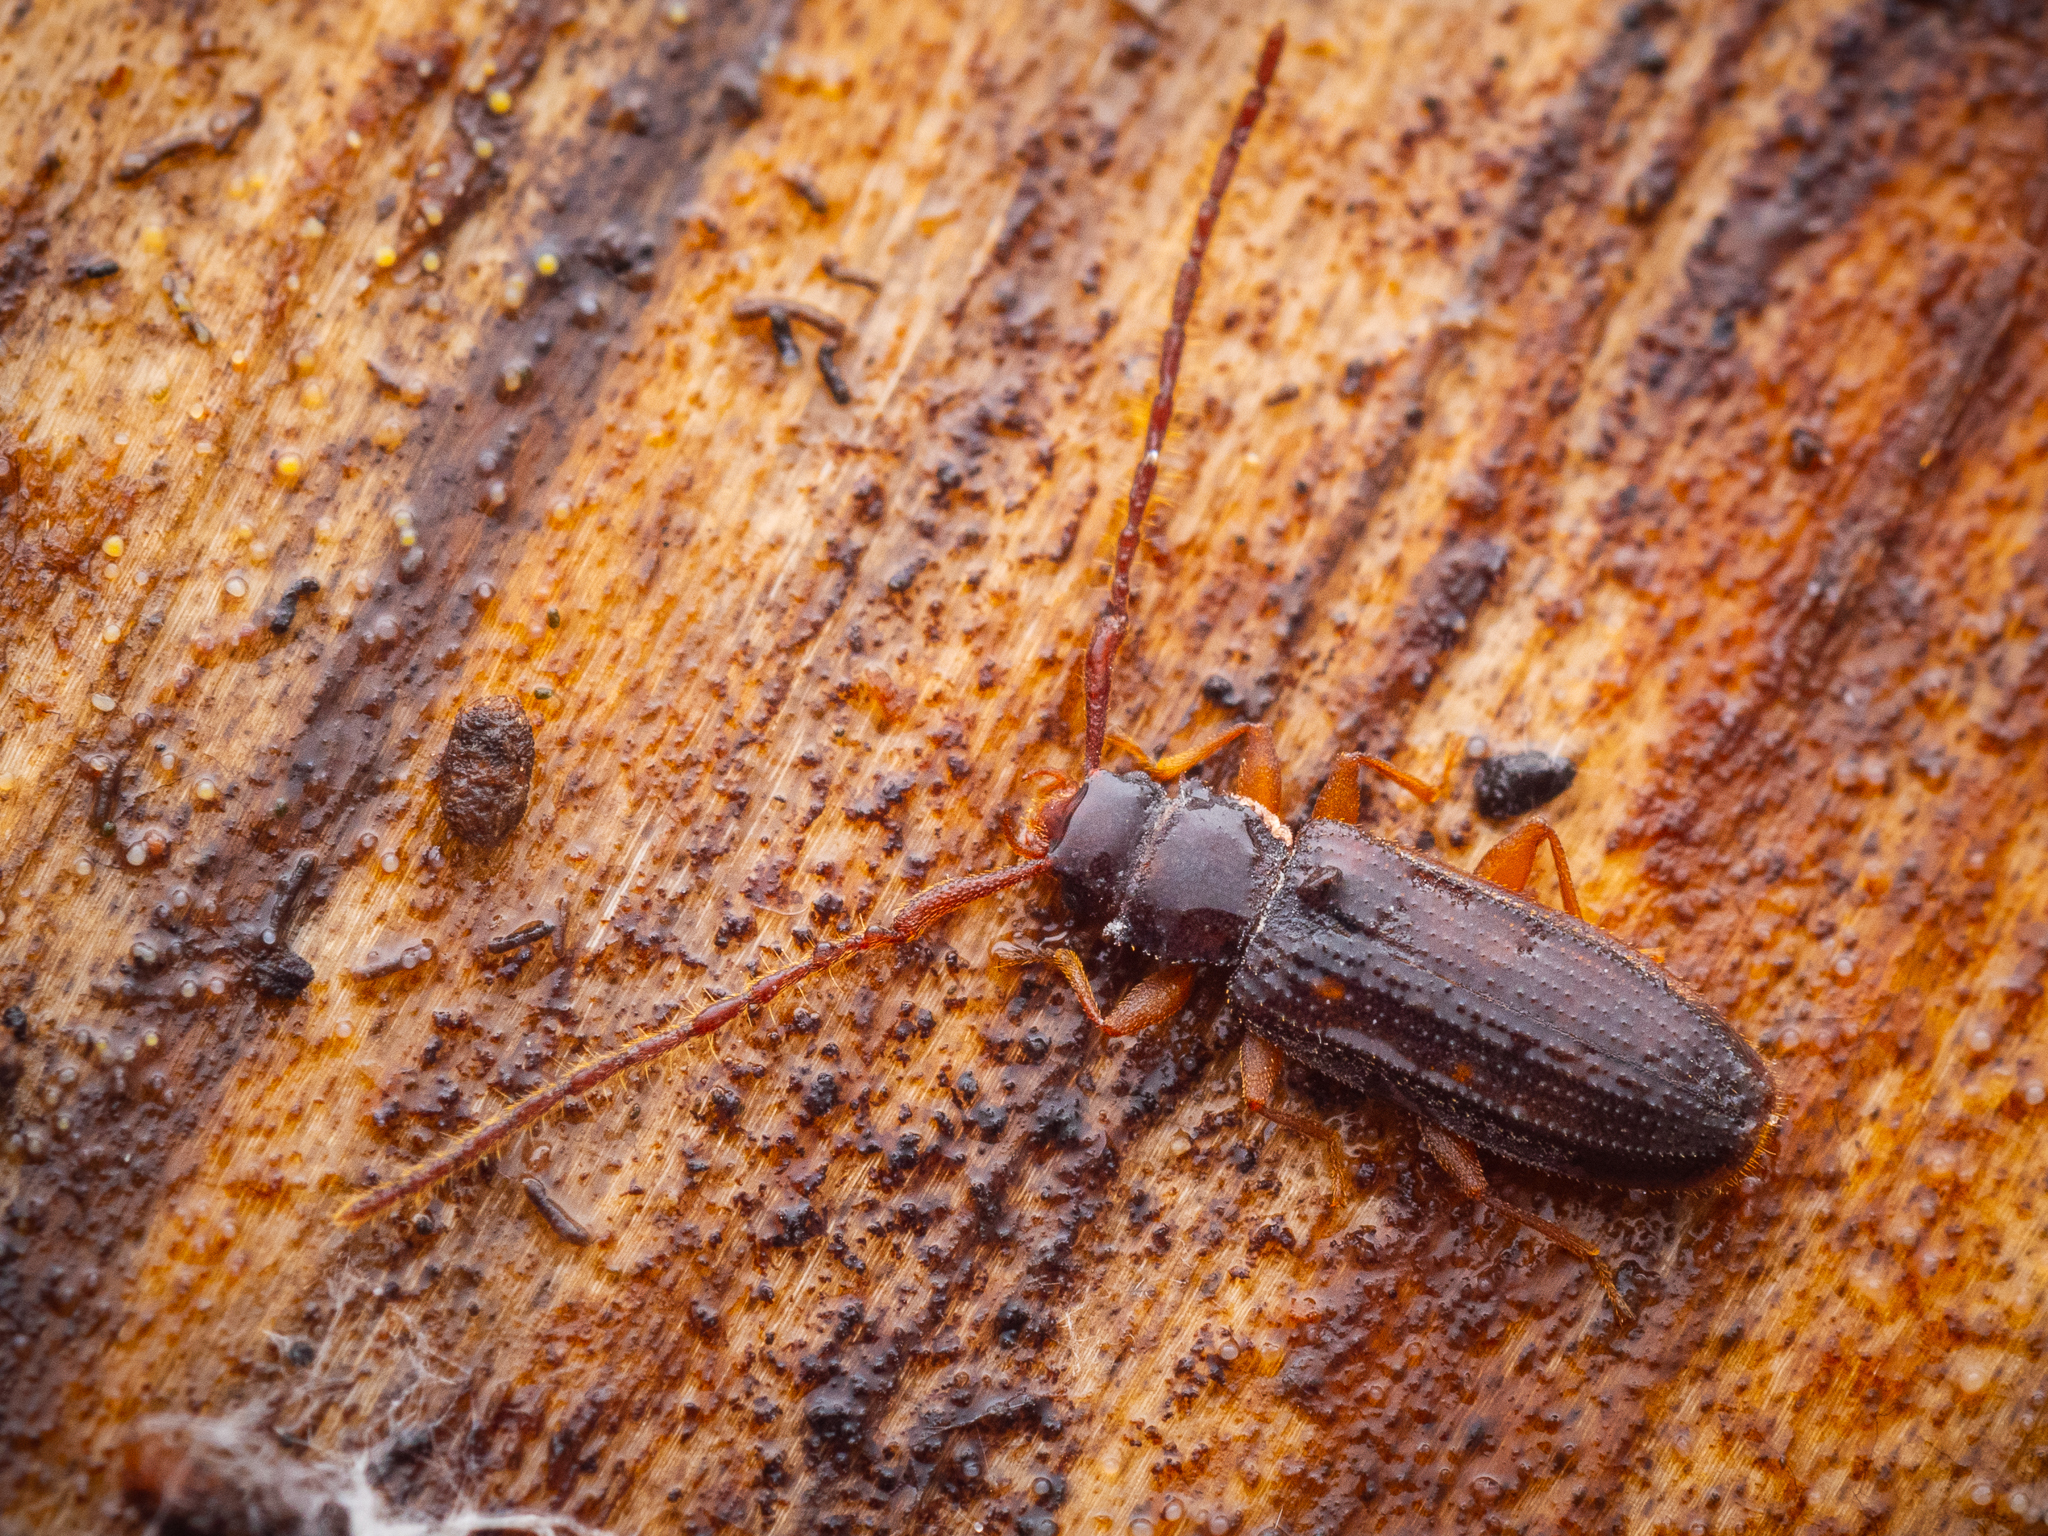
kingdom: Animalia
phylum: Arthropoda
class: Insecta
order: Coleoptera
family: Silvanidae
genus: Uleiota
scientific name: Uleiota planatus
